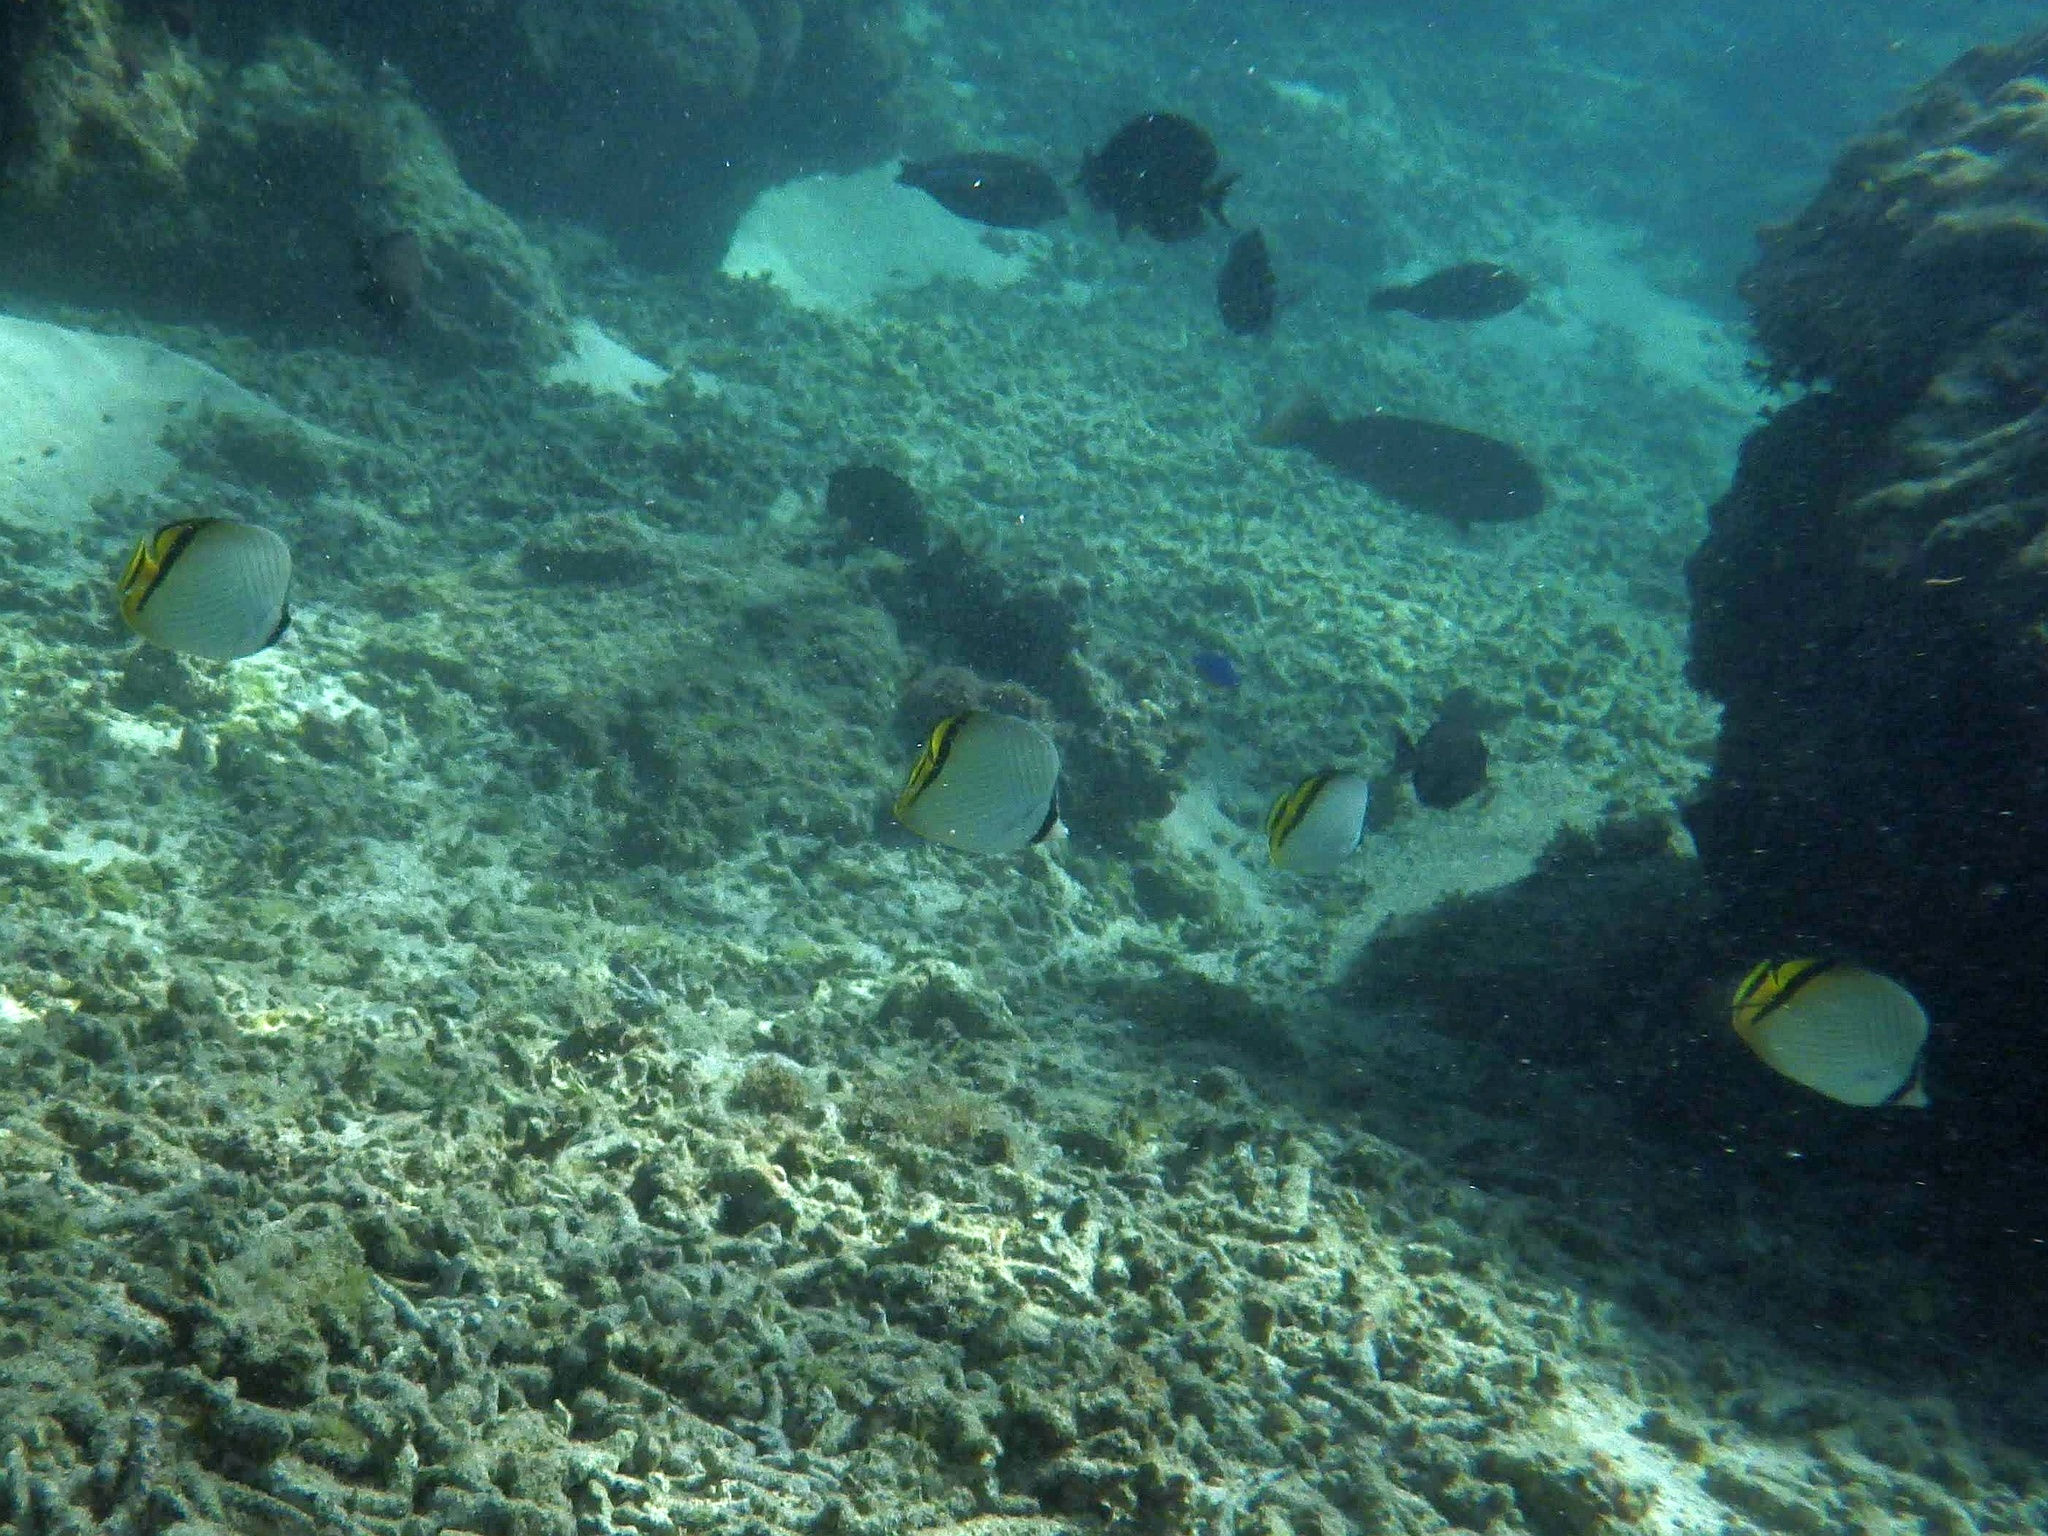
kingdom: Animalia
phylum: Chordata
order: Perciformes
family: Chaetodontidae
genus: Chaetodon
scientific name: Chaetodon vagabundus
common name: Vagabond butterflyfish
